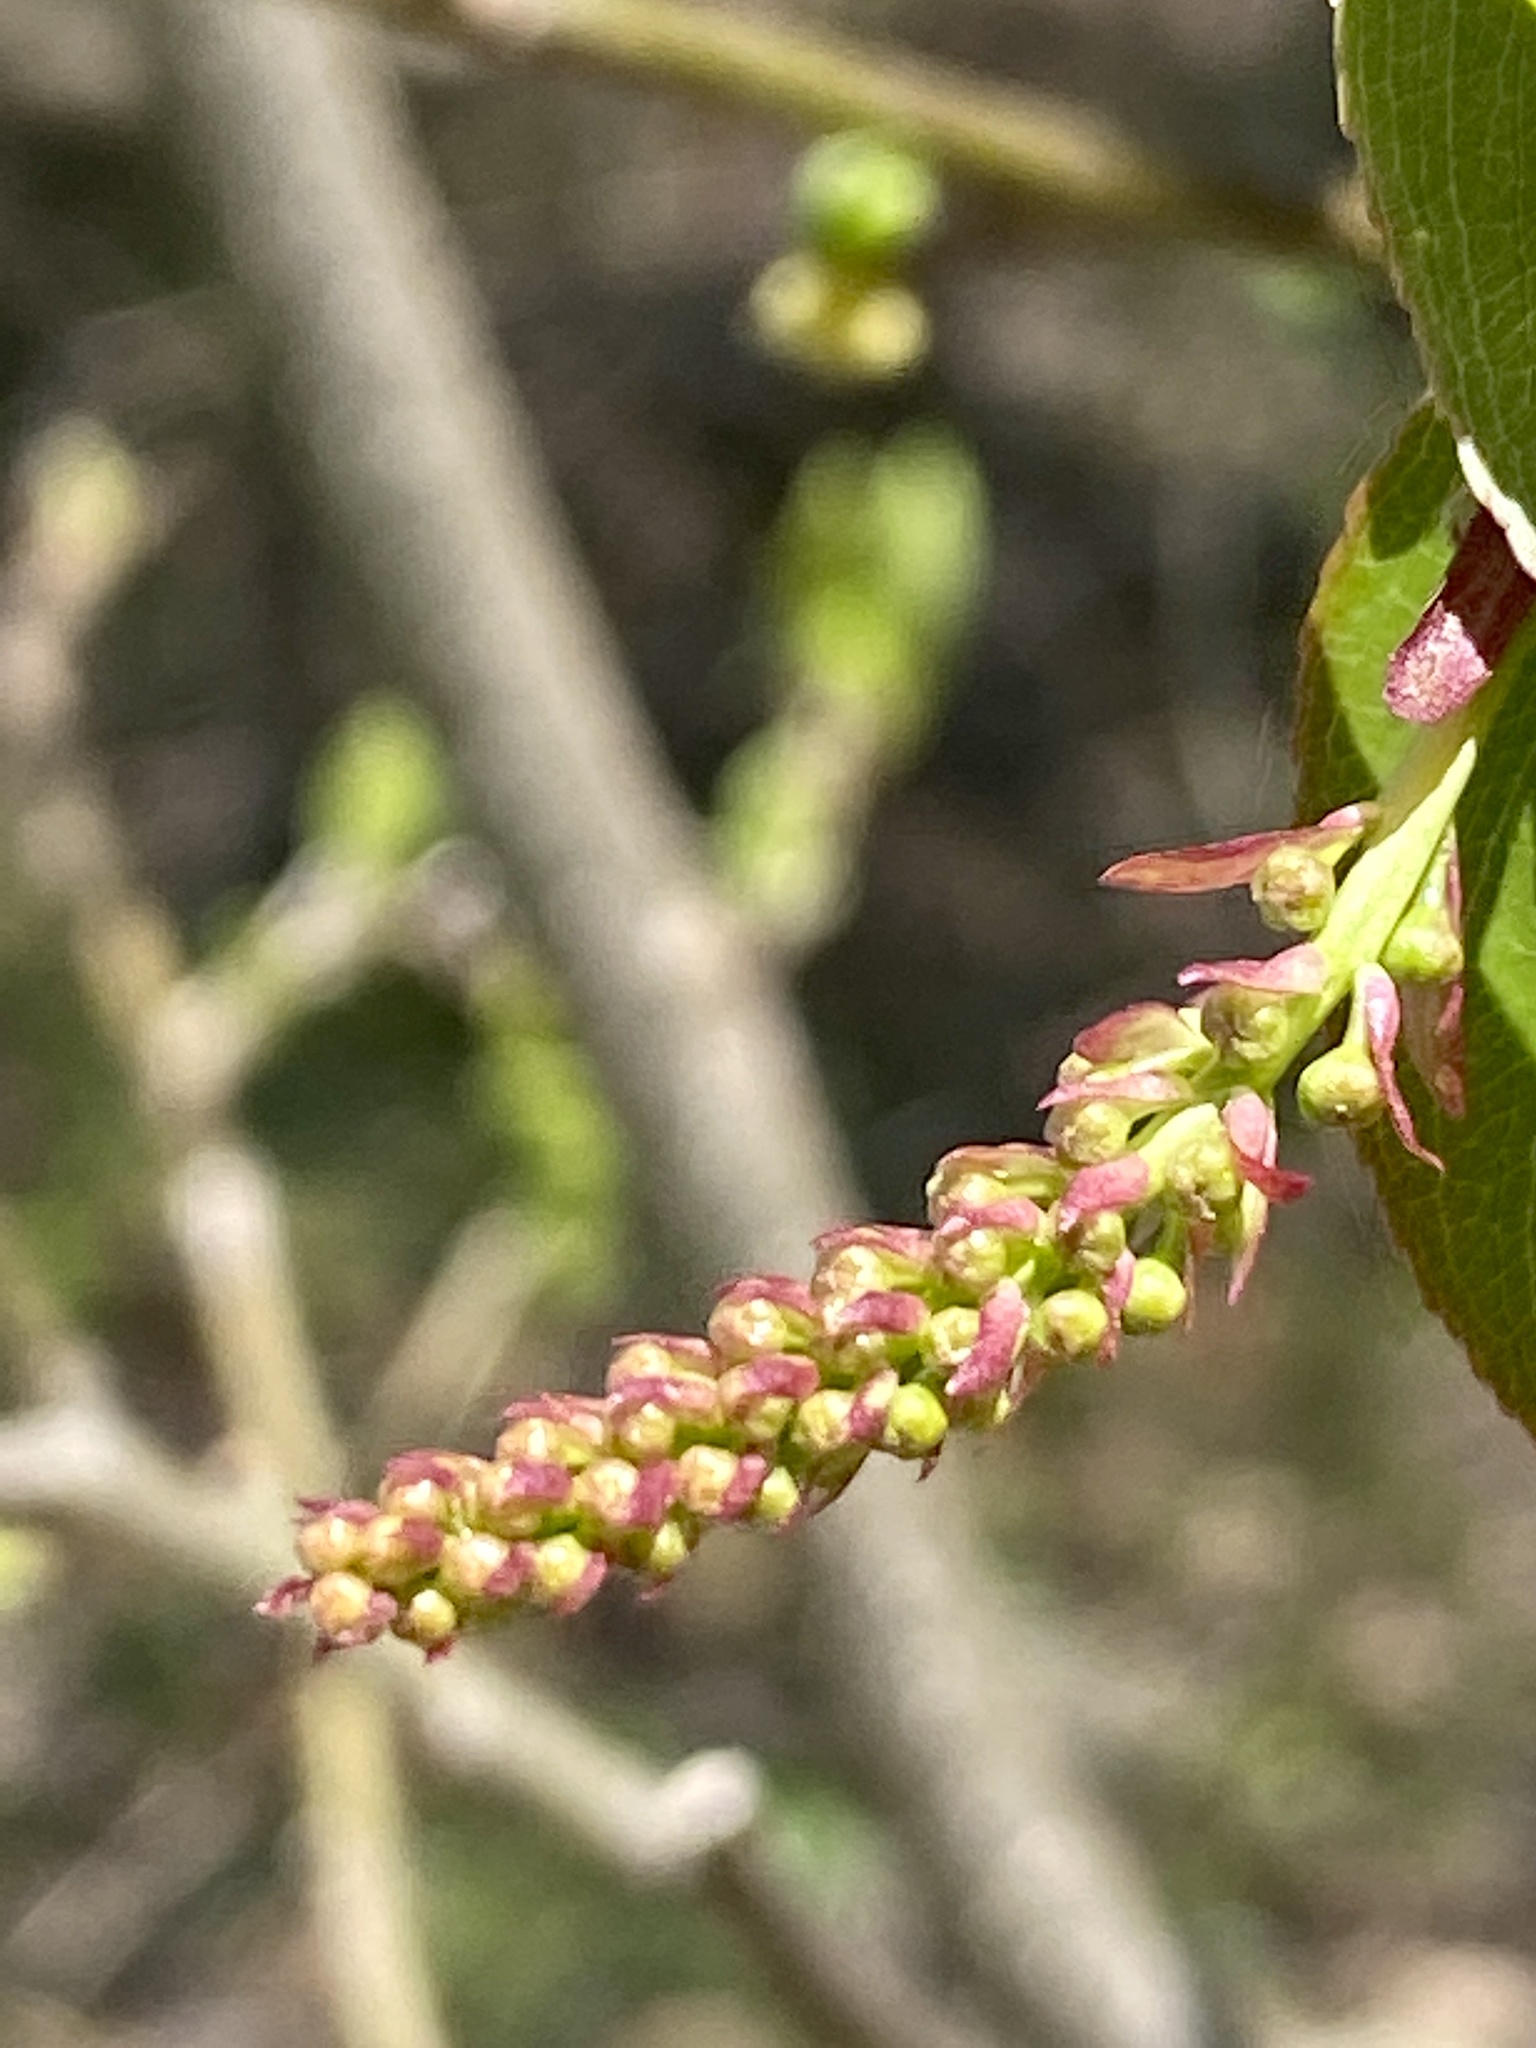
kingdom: Plantae
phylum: Tracheophyta
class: Magnoliopsida
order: Rosales
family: Rosaceae
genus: Prunus
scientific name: Prunus serotina
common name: Black cherry
